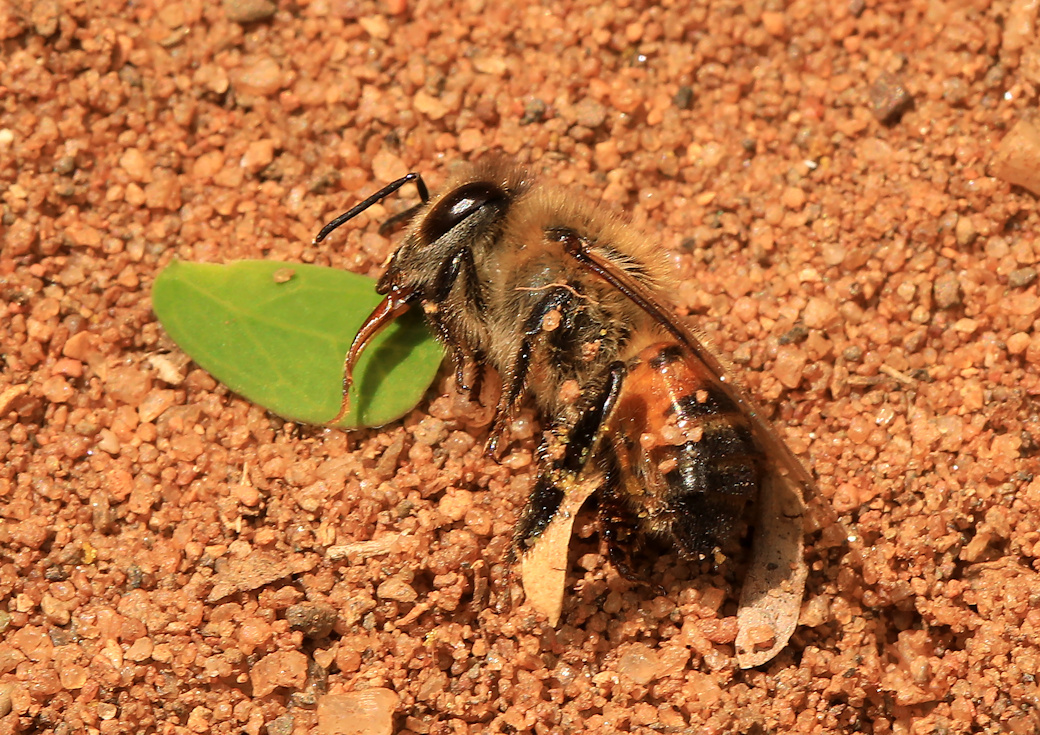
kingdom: Animalia
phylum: Arthropoda
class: Insecta
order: Hymenoptera
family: Apidae
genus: Apis
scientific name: Apis mellifera
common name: Honey bee
